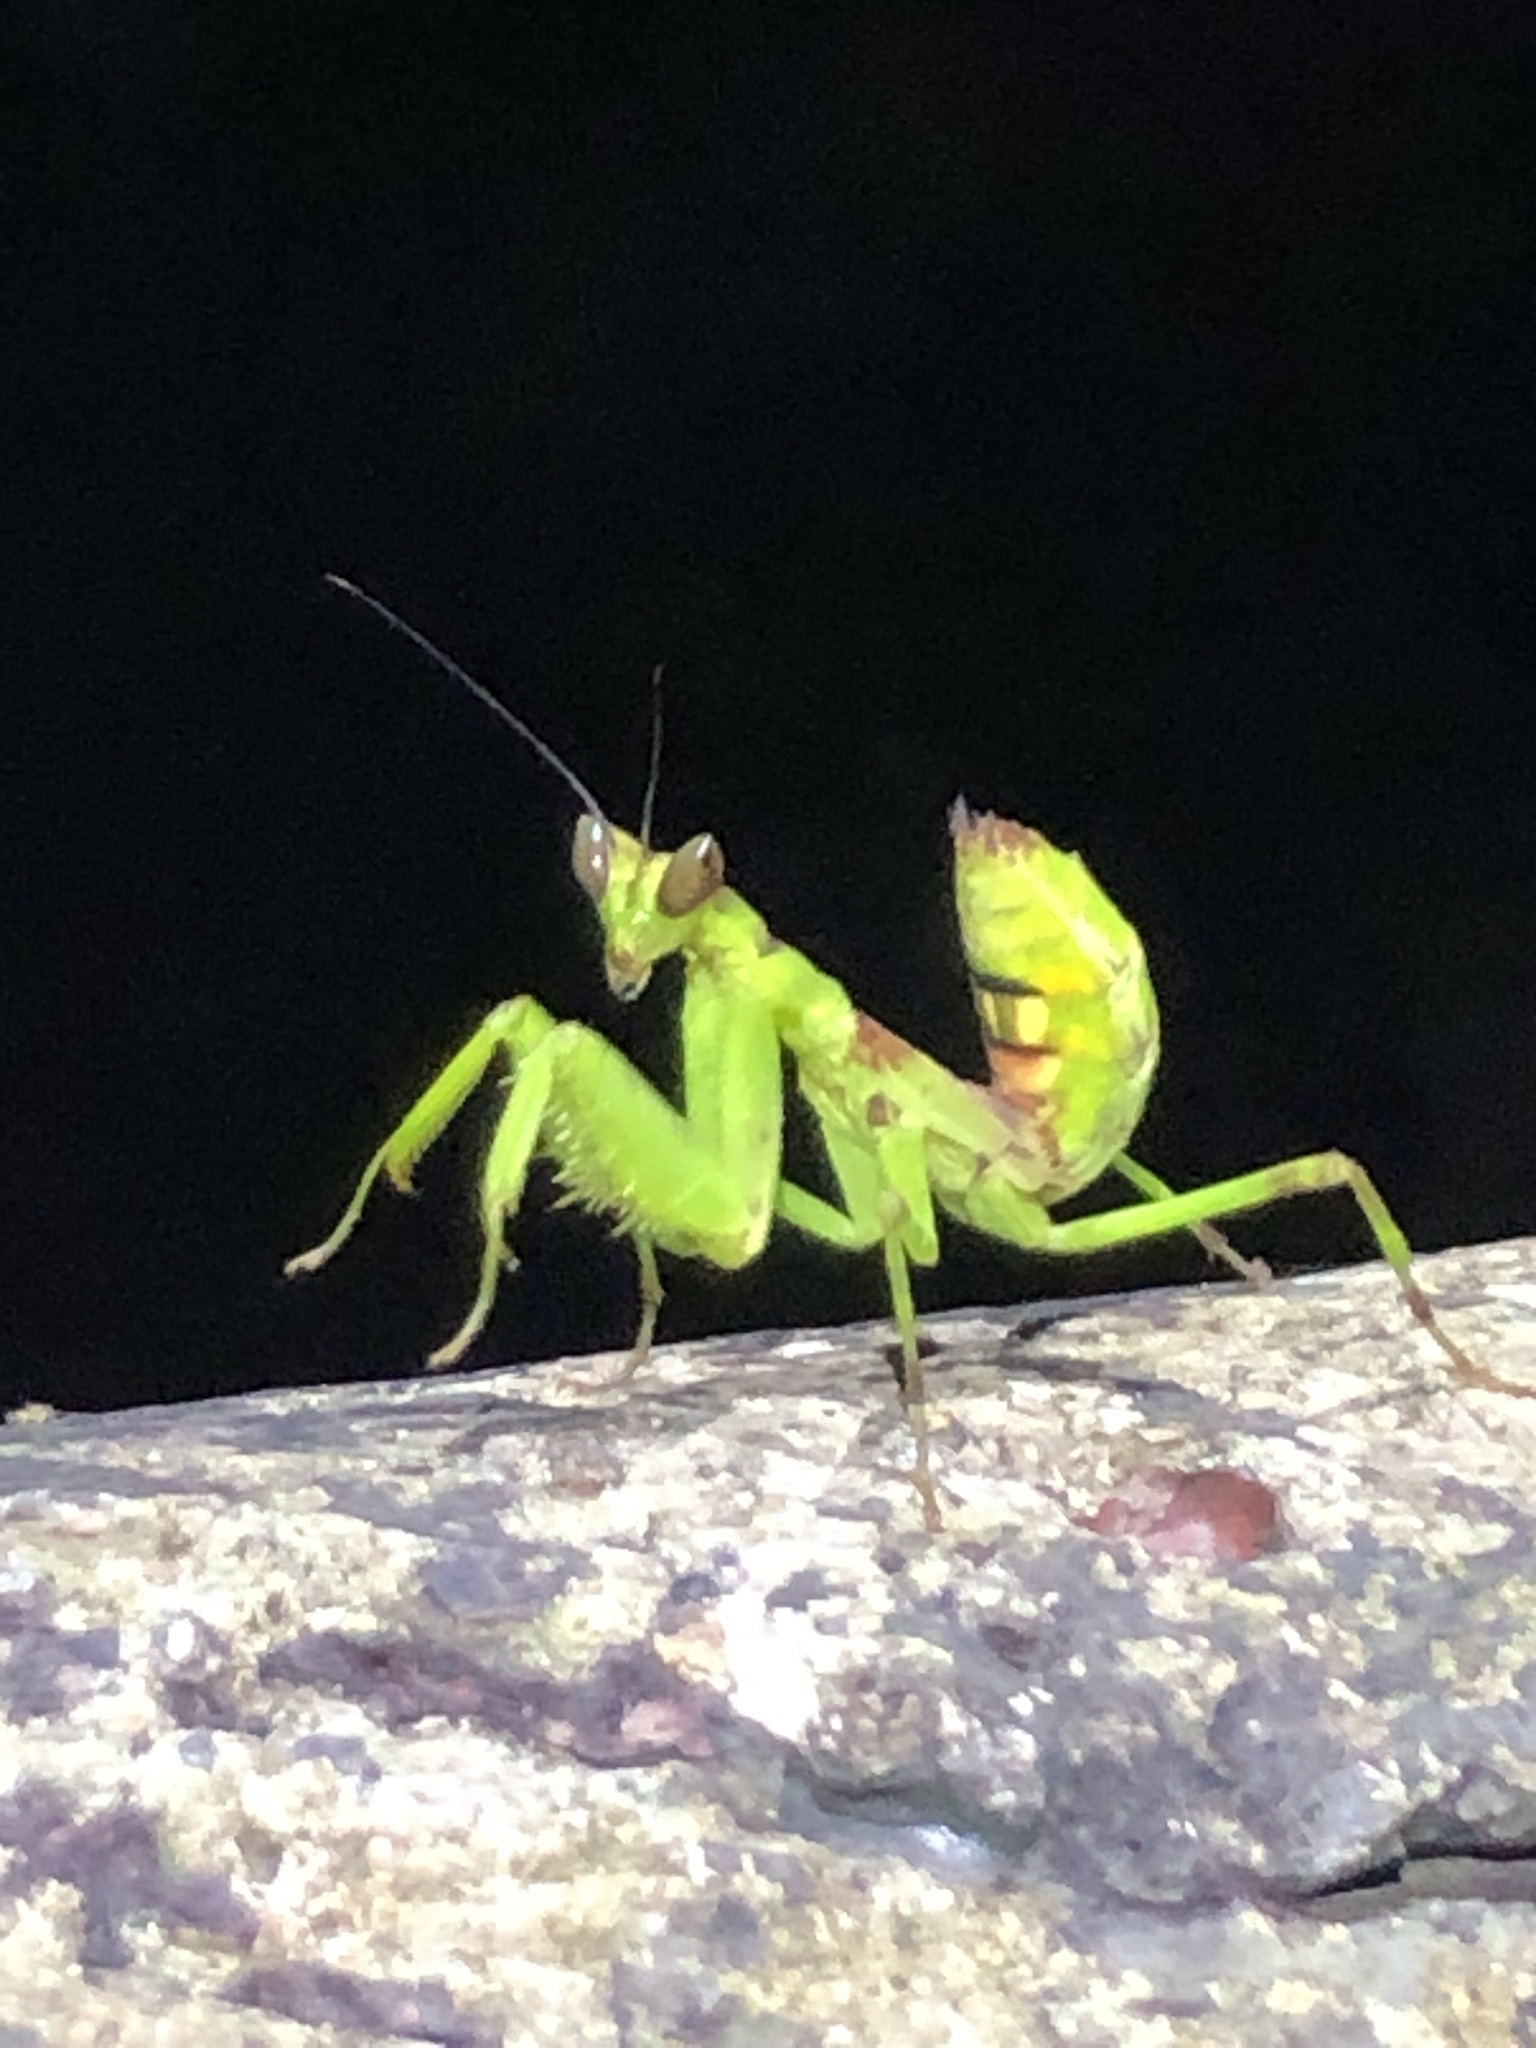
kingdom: Animalia
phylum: Arthropoda
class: Insecta
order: Mantodea
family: Hymenopodidae
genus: Creobroter
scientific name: Creobroter gemmatus
